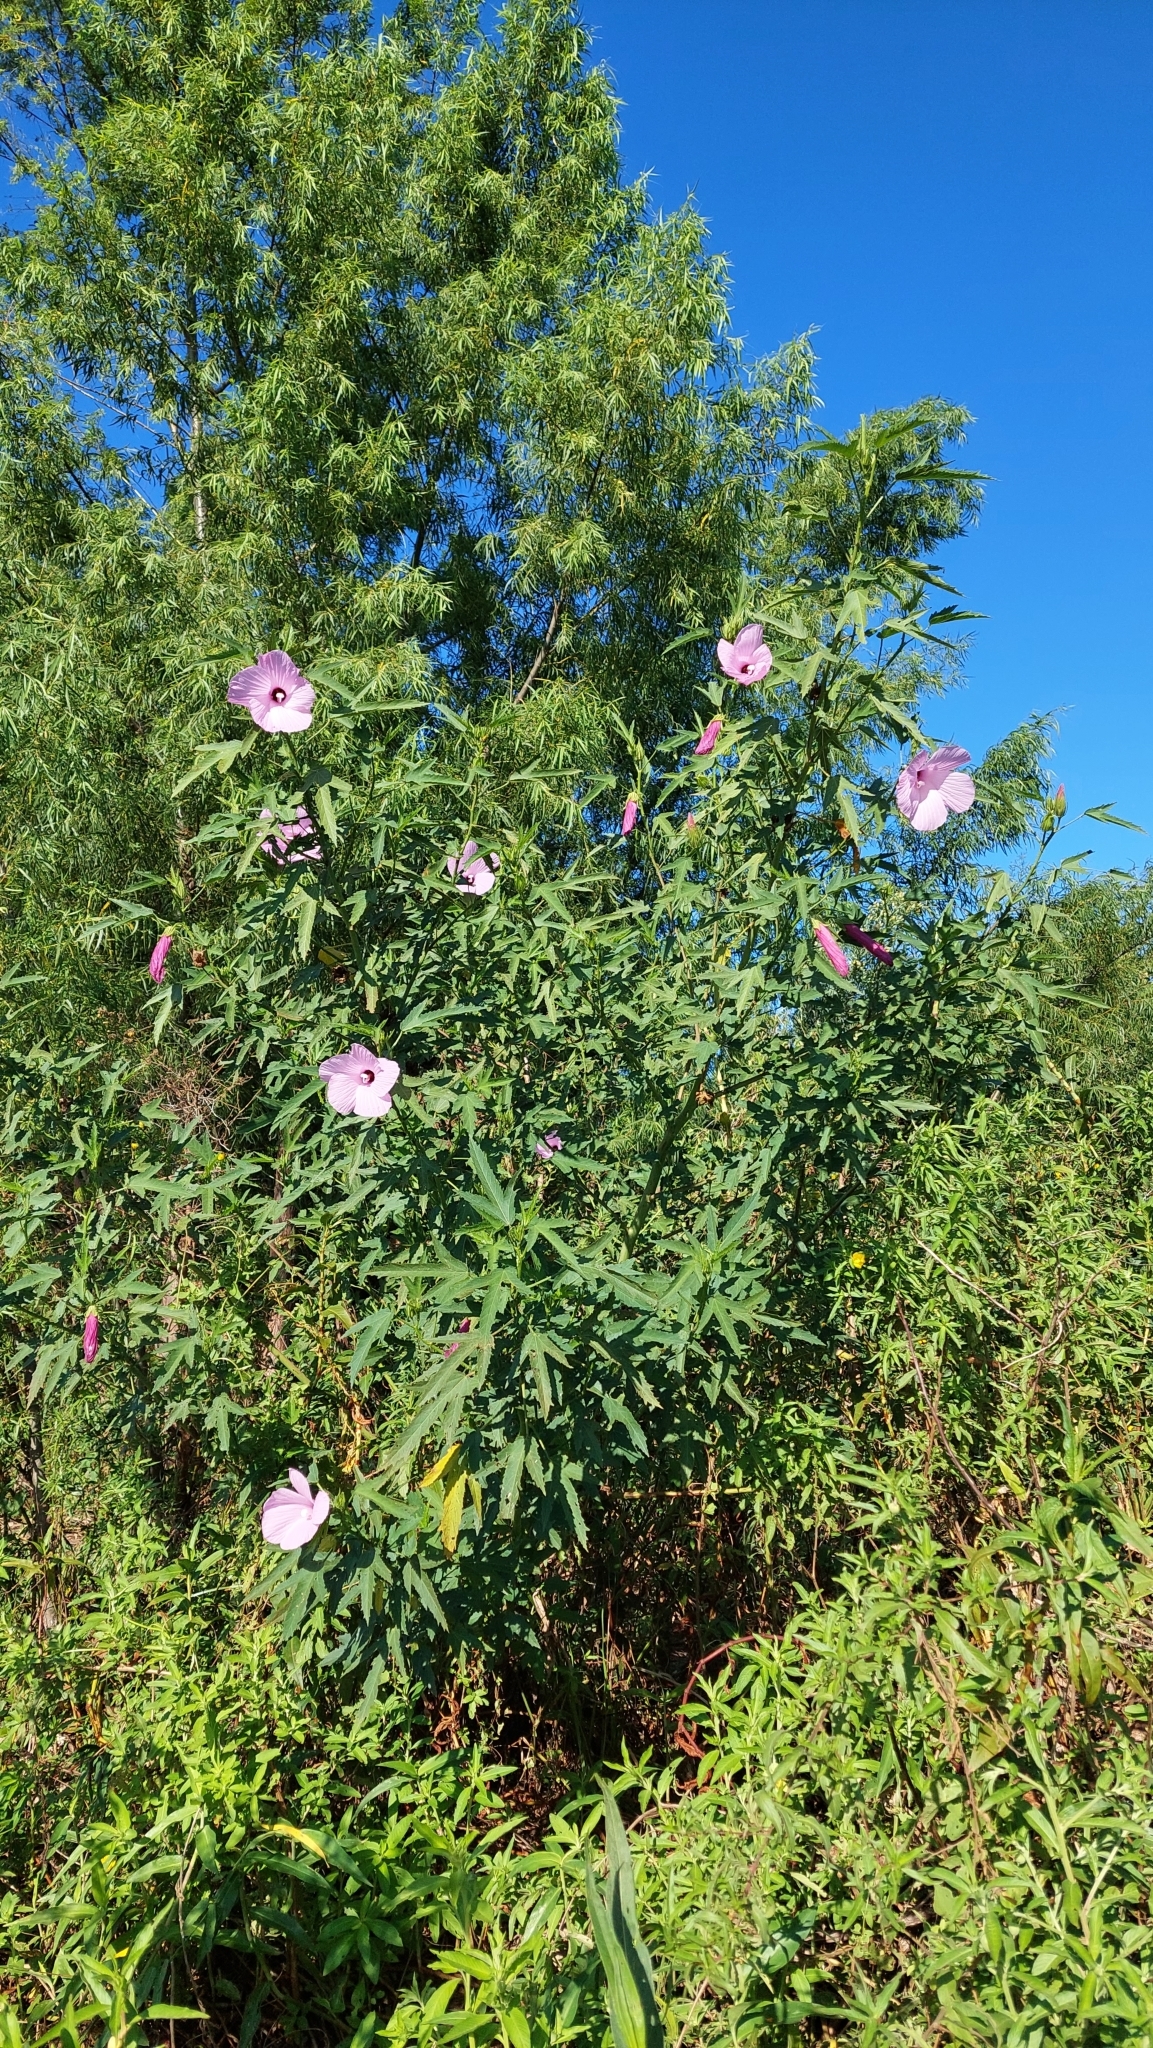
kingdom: Plantae
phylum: Tracheophyta
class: Magnoliopsida
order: Malvales
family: Malvaceae
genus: Hibiscus
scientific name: Hibiscus striatus
